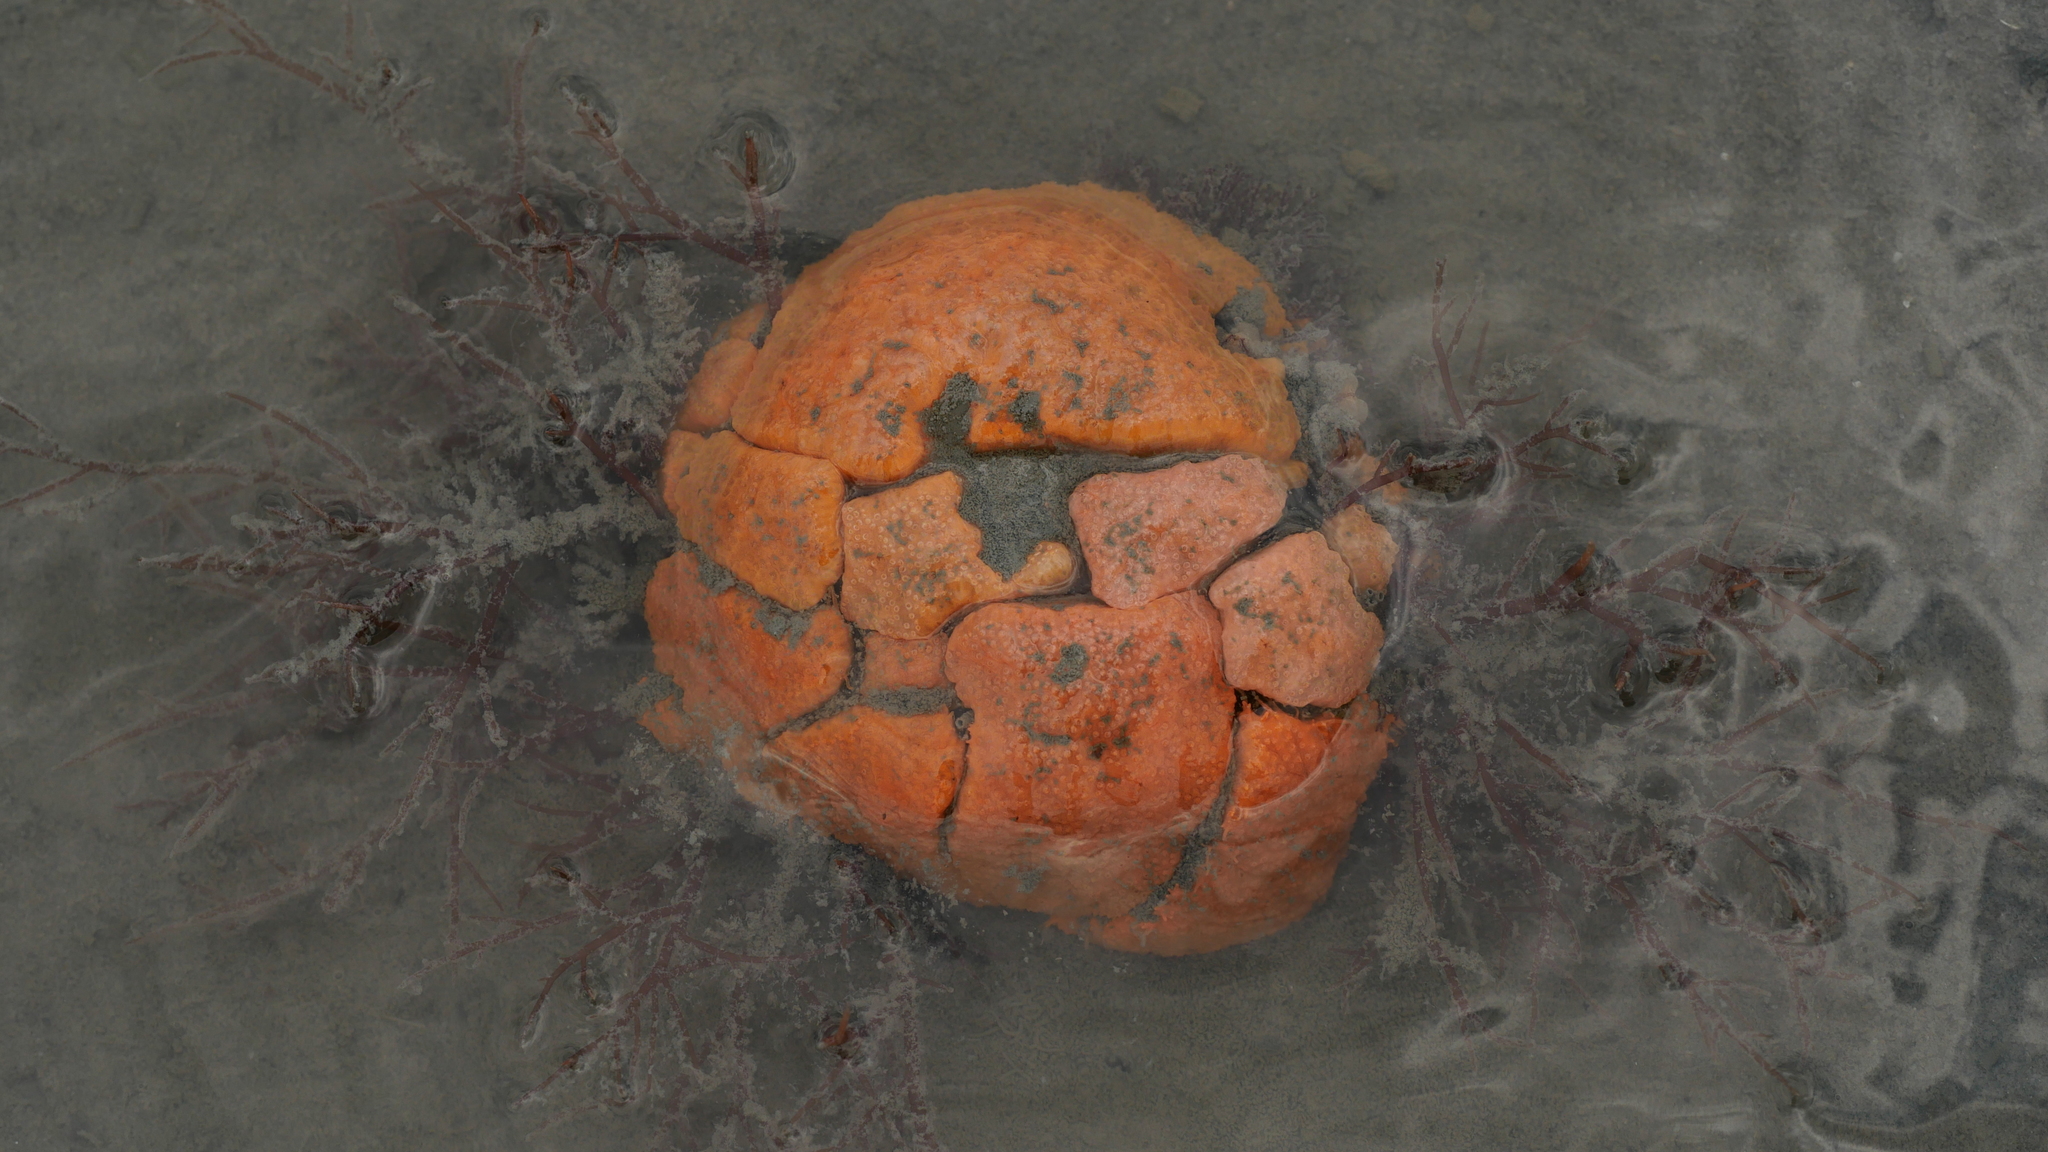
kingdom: Animalia
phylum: Chordata
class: Ascidiacea
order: Aplousobranchia
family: Polyclinidae
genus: Aplidium
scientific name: Aplidium stellatum
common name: Atlantic sea pork
